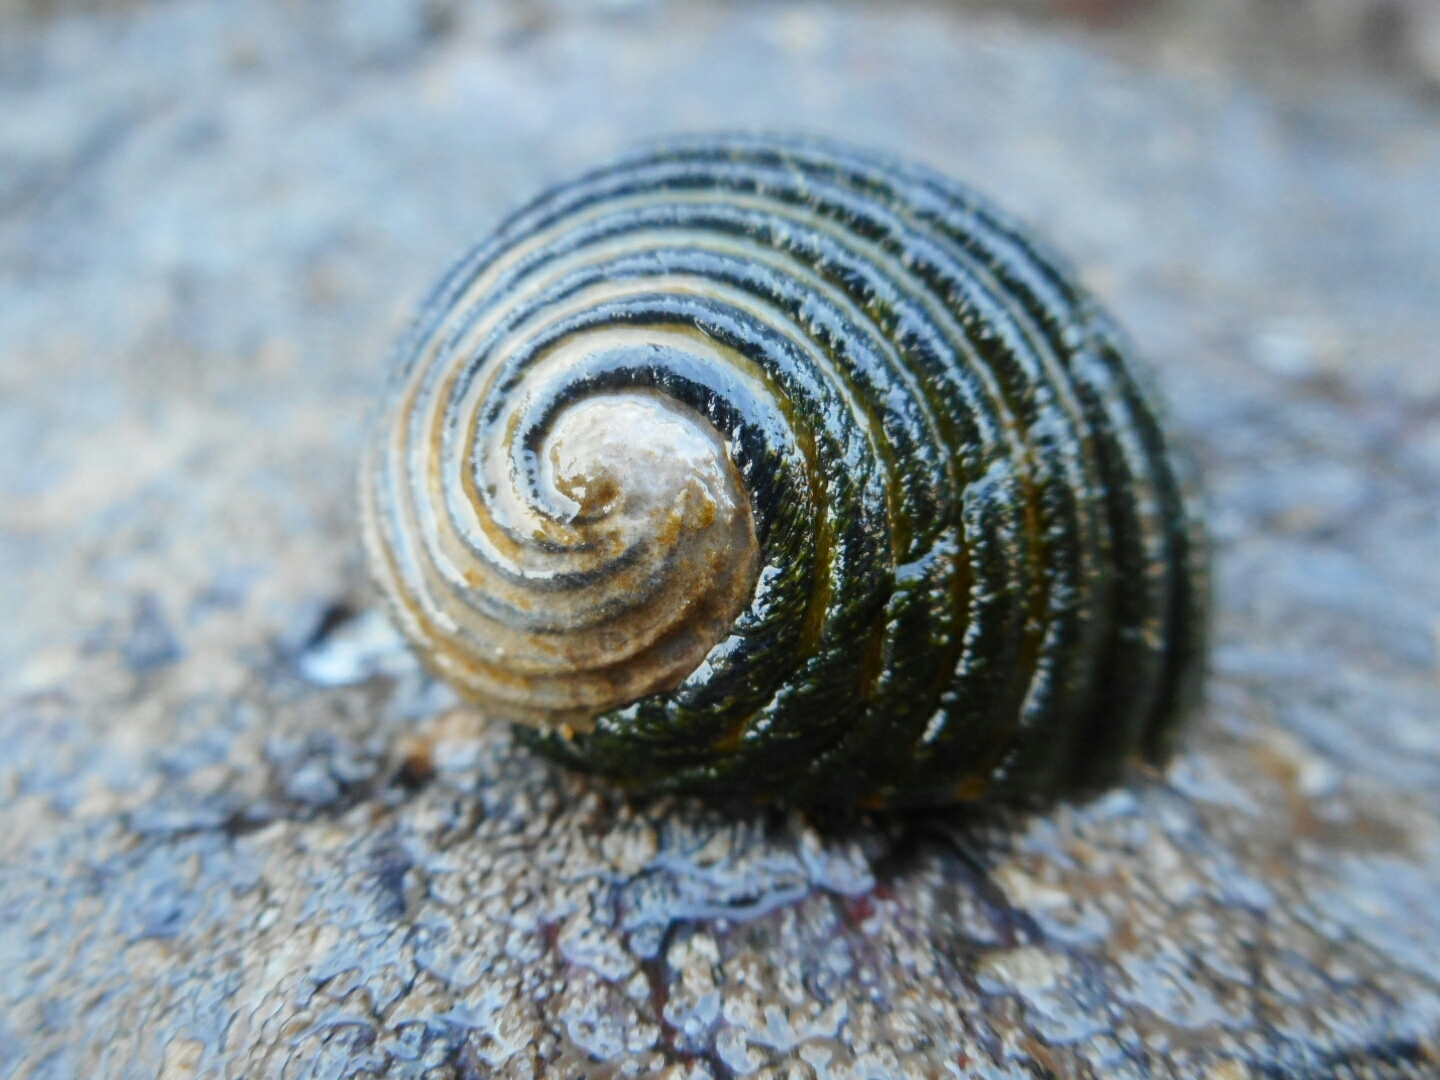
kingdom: Animalia
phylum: Mollusca
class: Gastropoda
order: Cycloneritida
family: Neritidae
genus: Nerita
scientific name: Nerita costata
